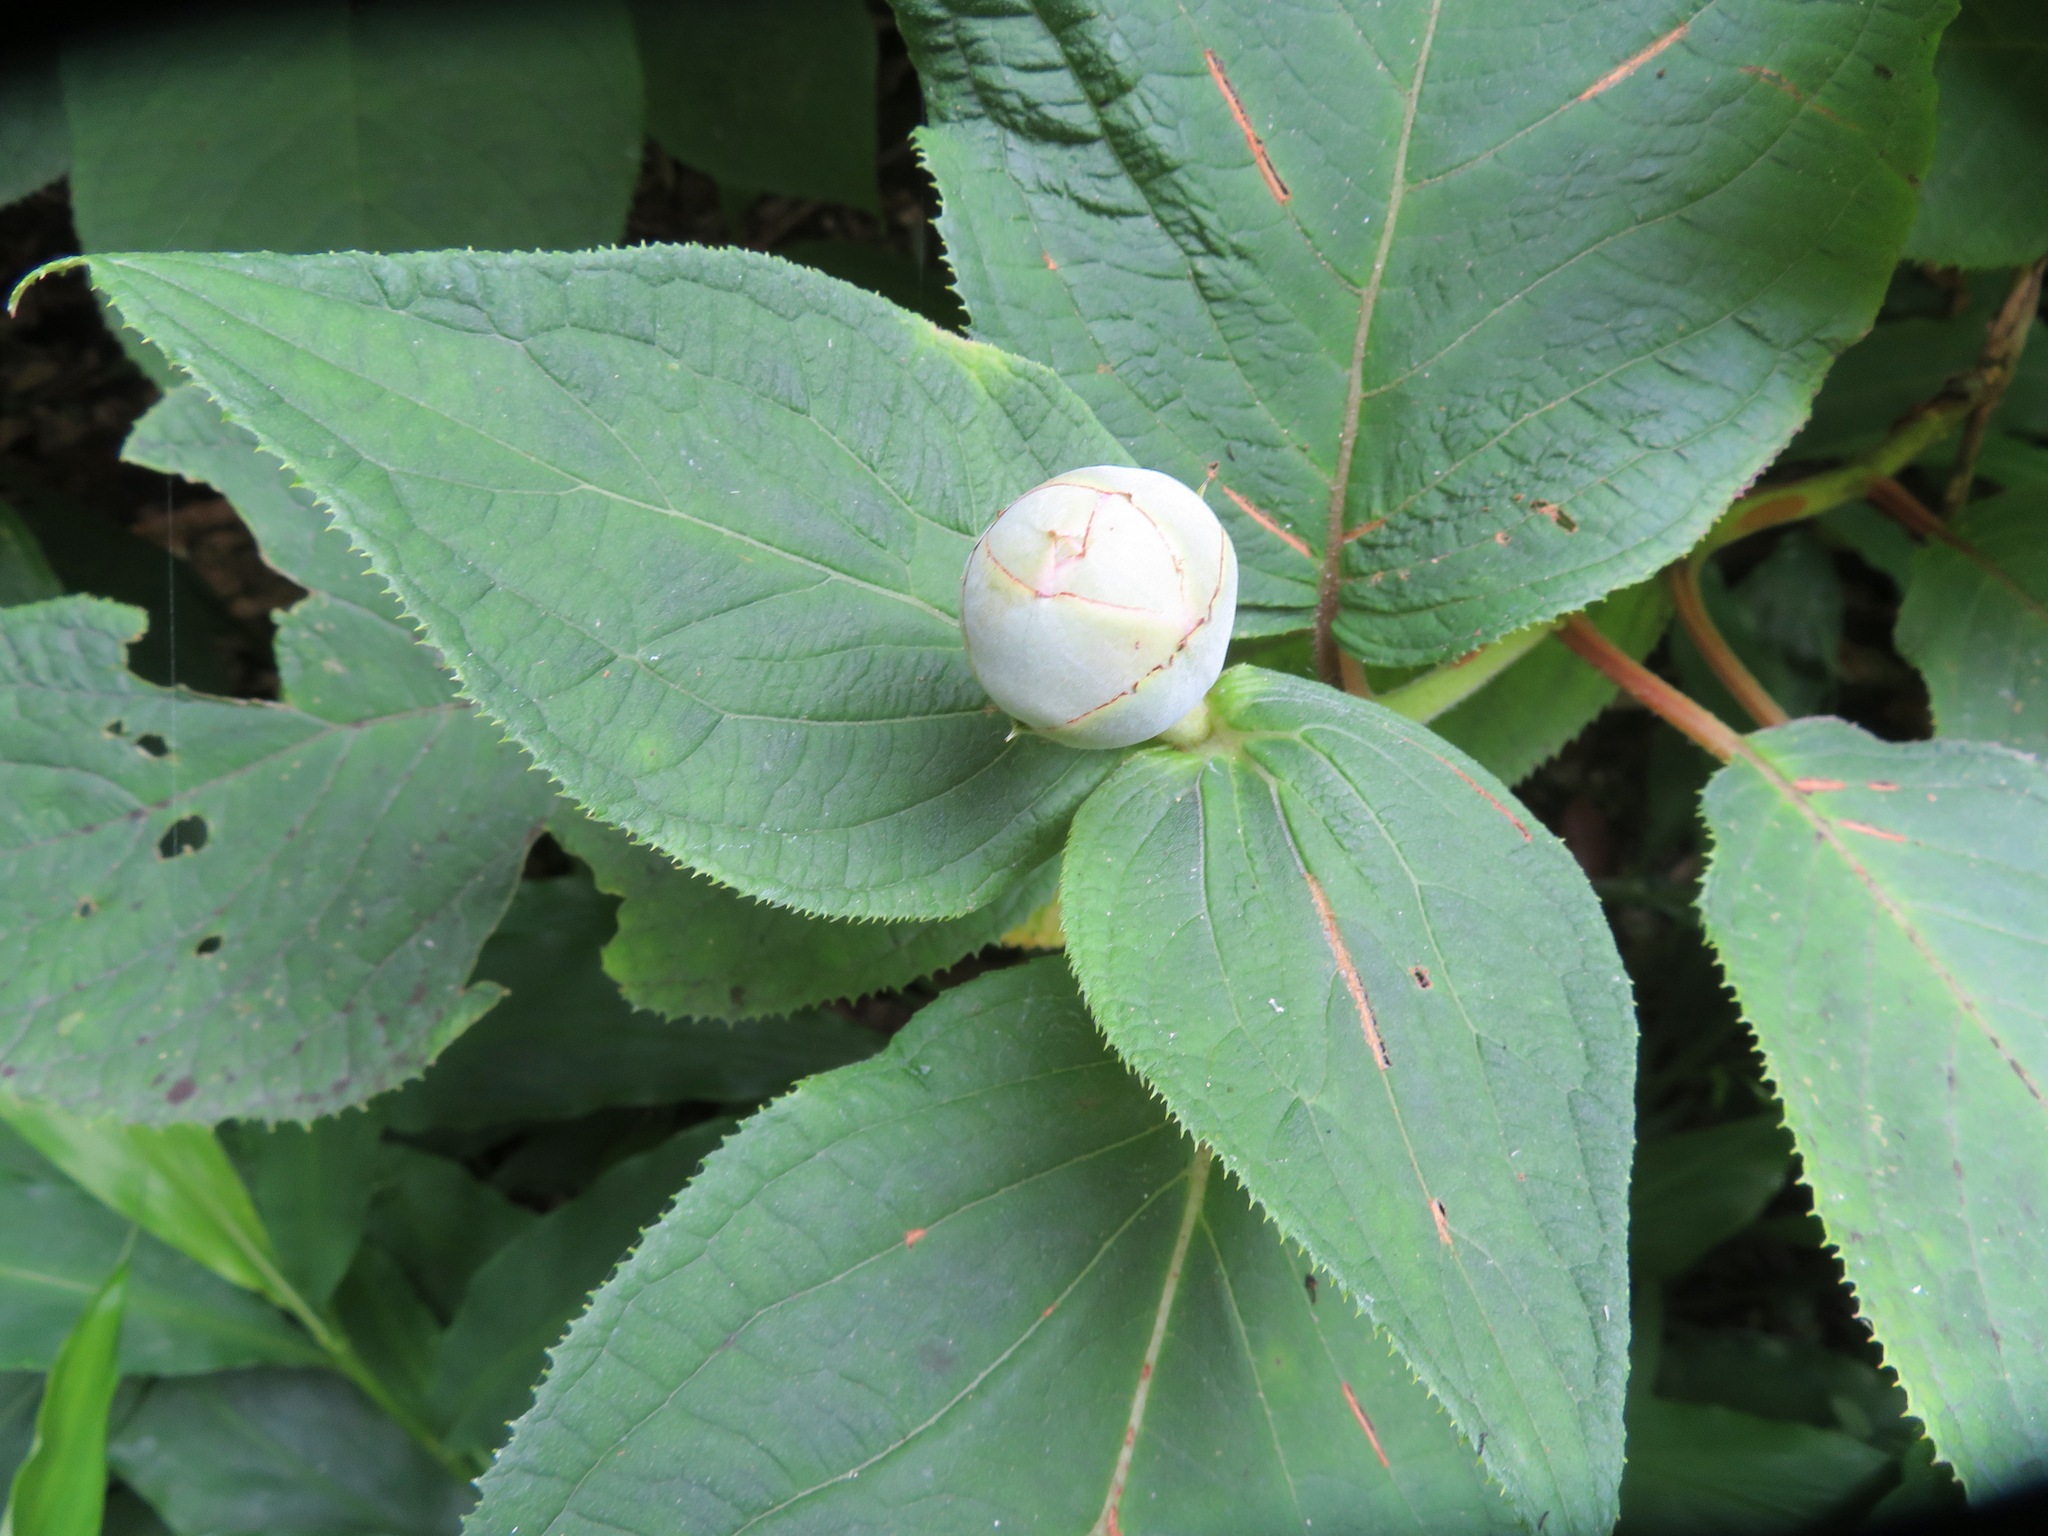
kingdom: Plantae
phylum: Tracheophyta
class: Magnoliopsida
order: Cornales
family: Hydrangeaceae
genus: Hydrangea
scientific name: Hydrangea involucrata
